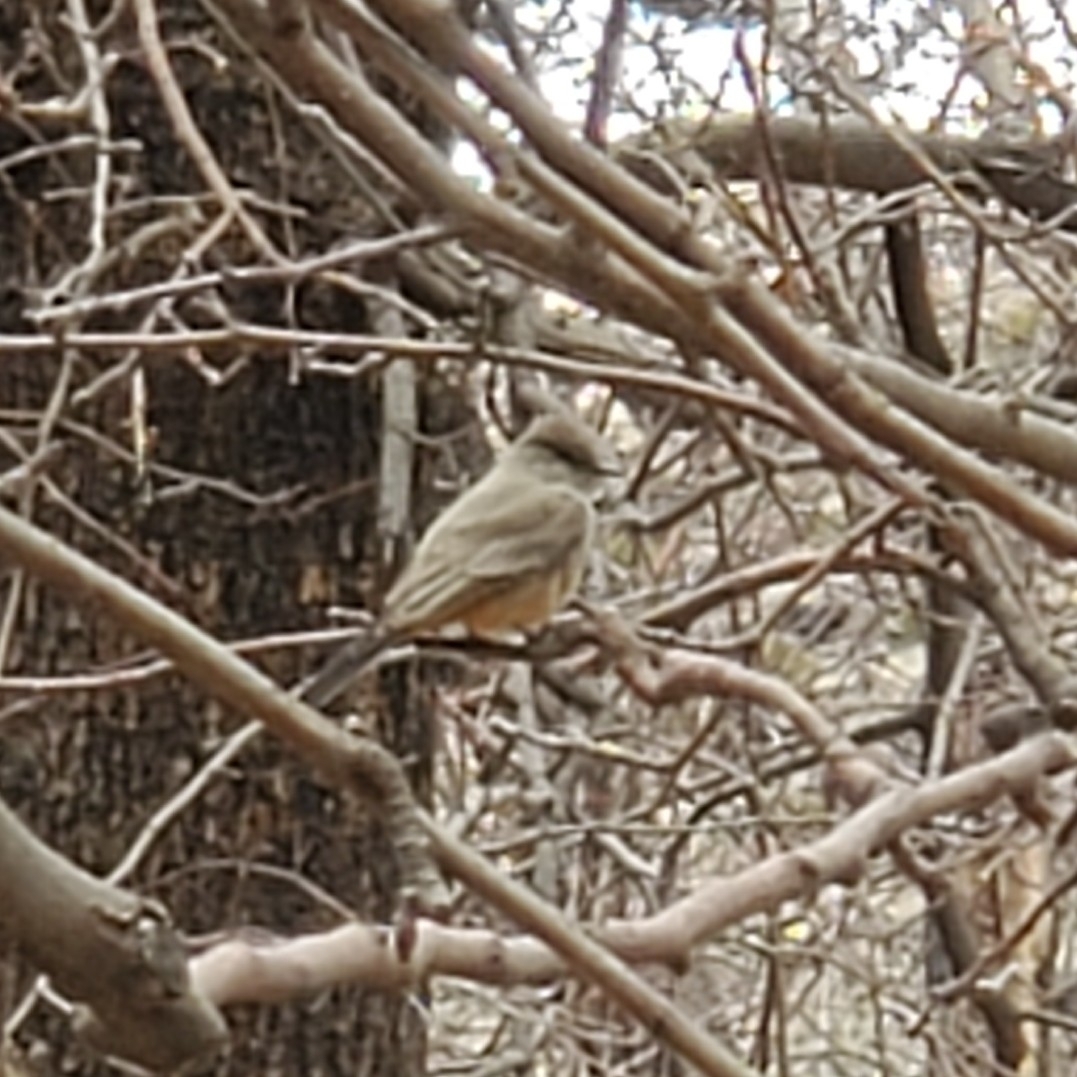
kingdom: Animalia
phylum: Chordata
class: Aves
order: Passeriformes
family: Tyrannidae
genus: Sayornis
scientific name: Sayornis saya
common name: Say's phoebe
